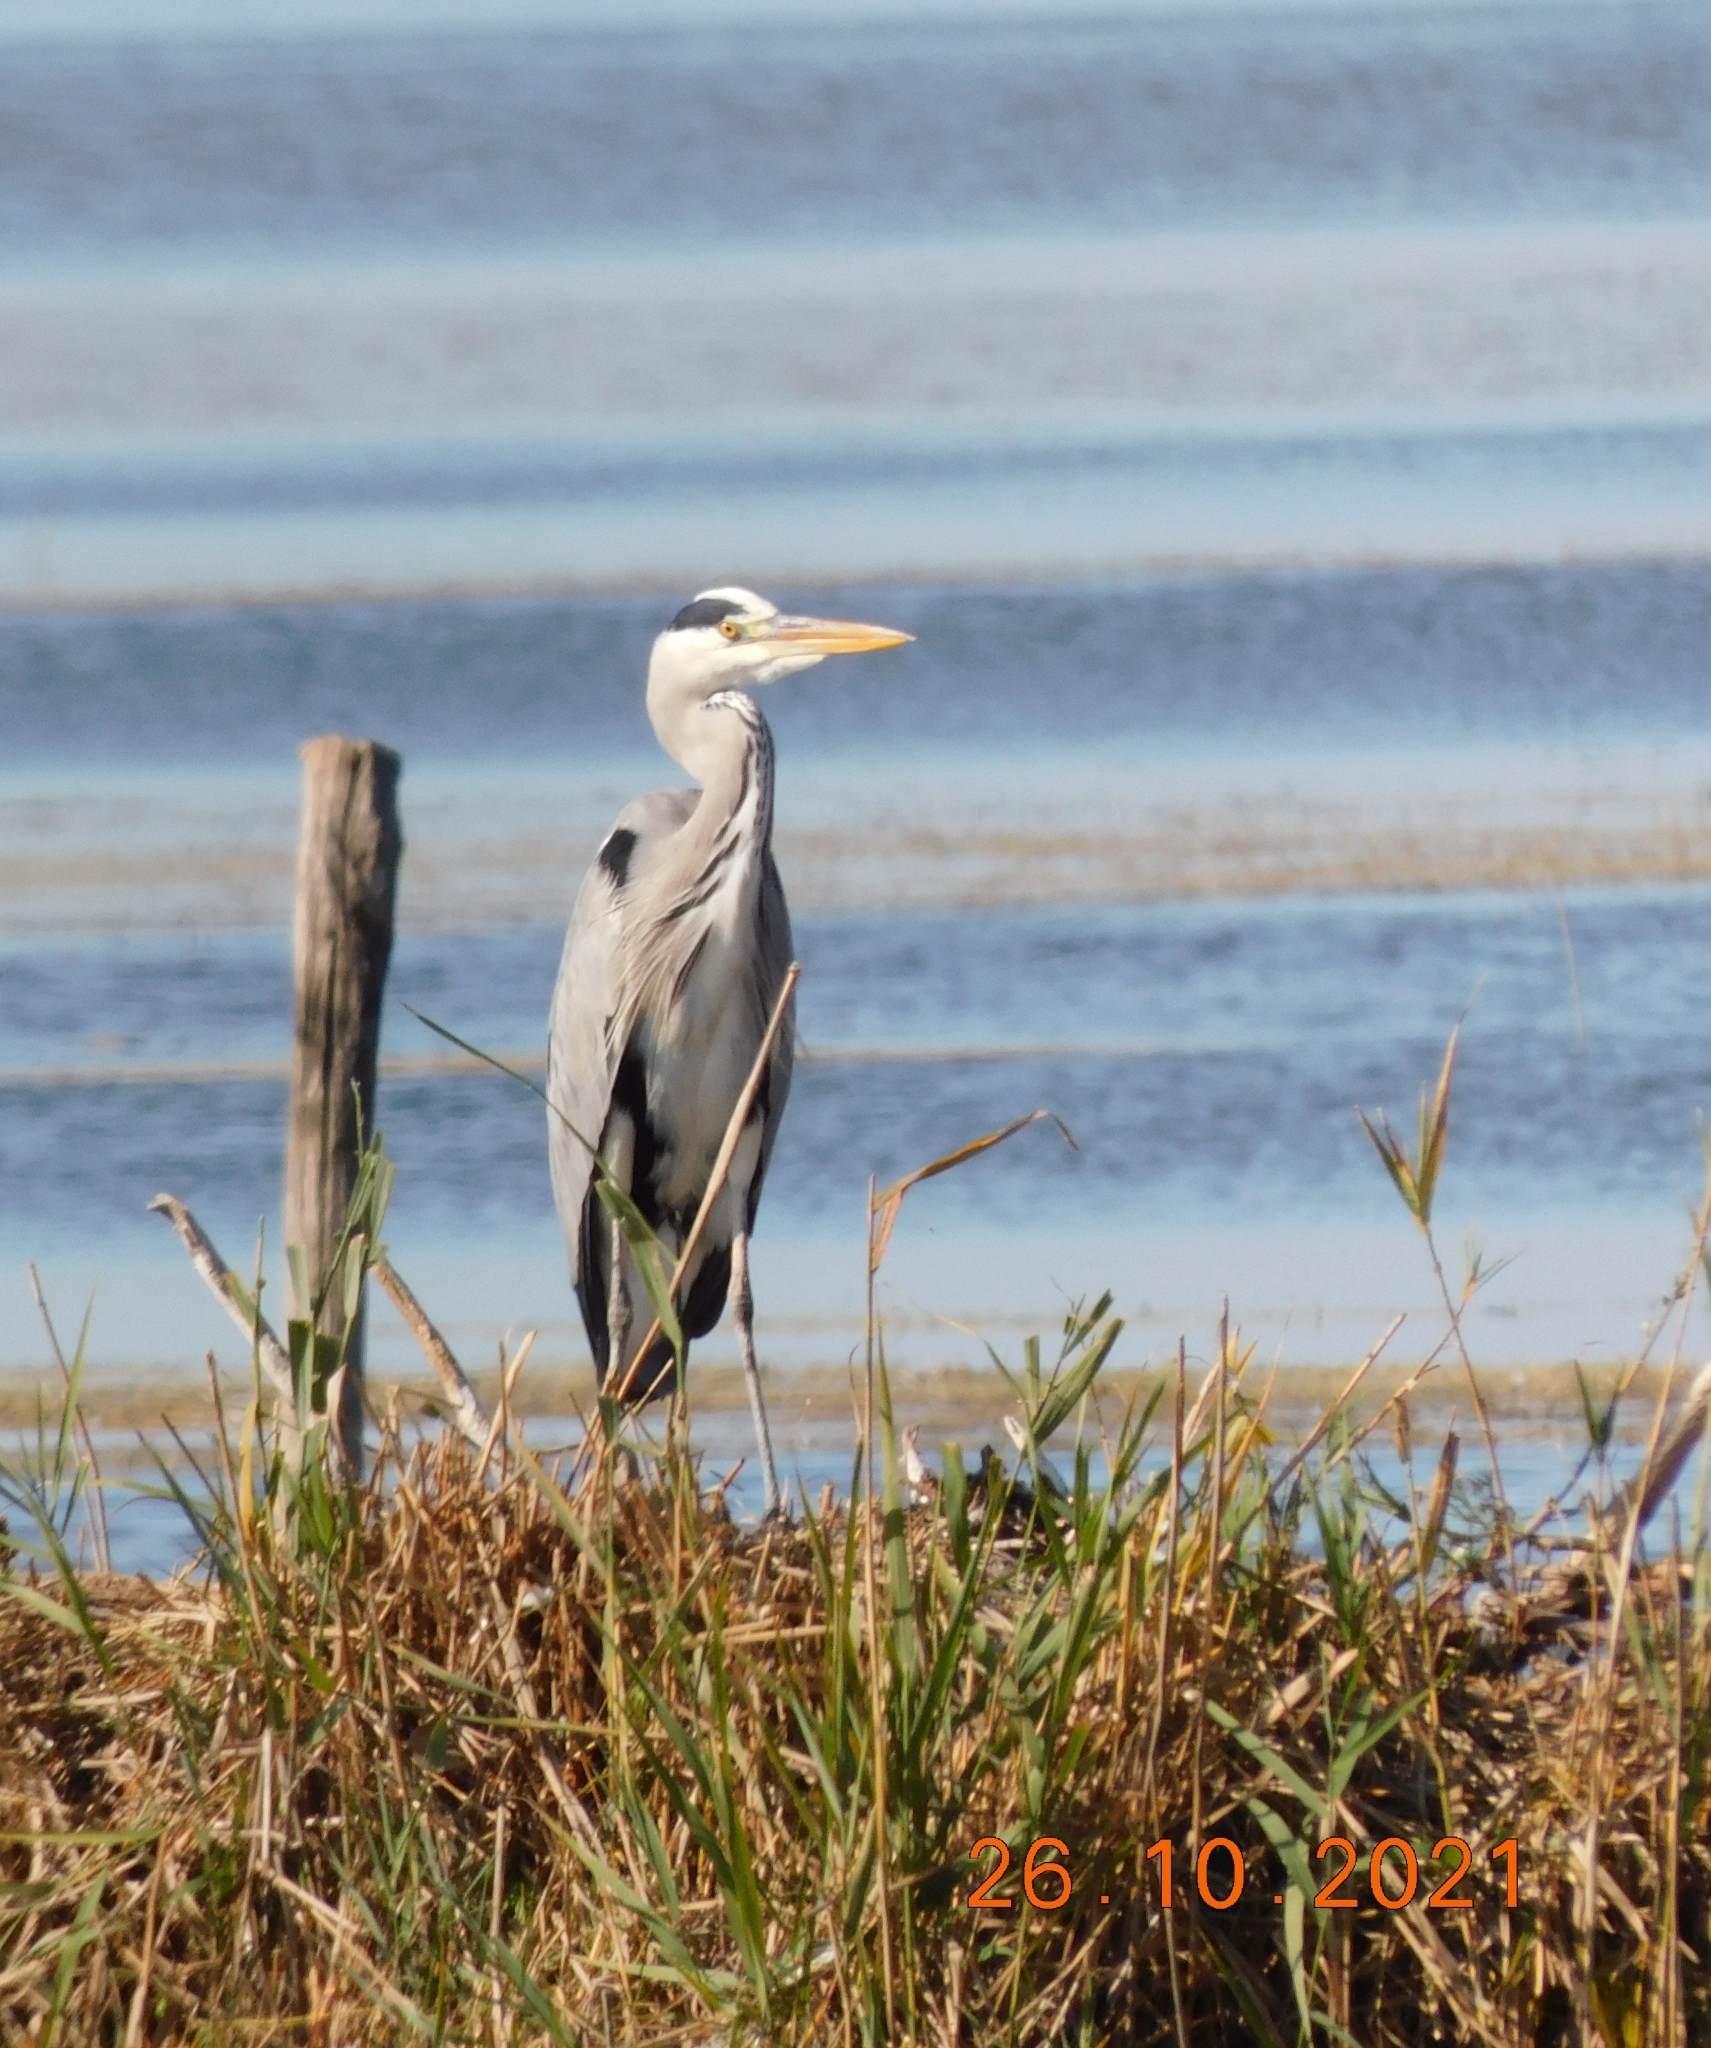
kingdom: Animalia
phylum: Chordata
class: Aves
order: Pelecaniformes
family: Ardeidae
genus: Ardea
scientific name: Ardea cinerea
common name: Grey heron
